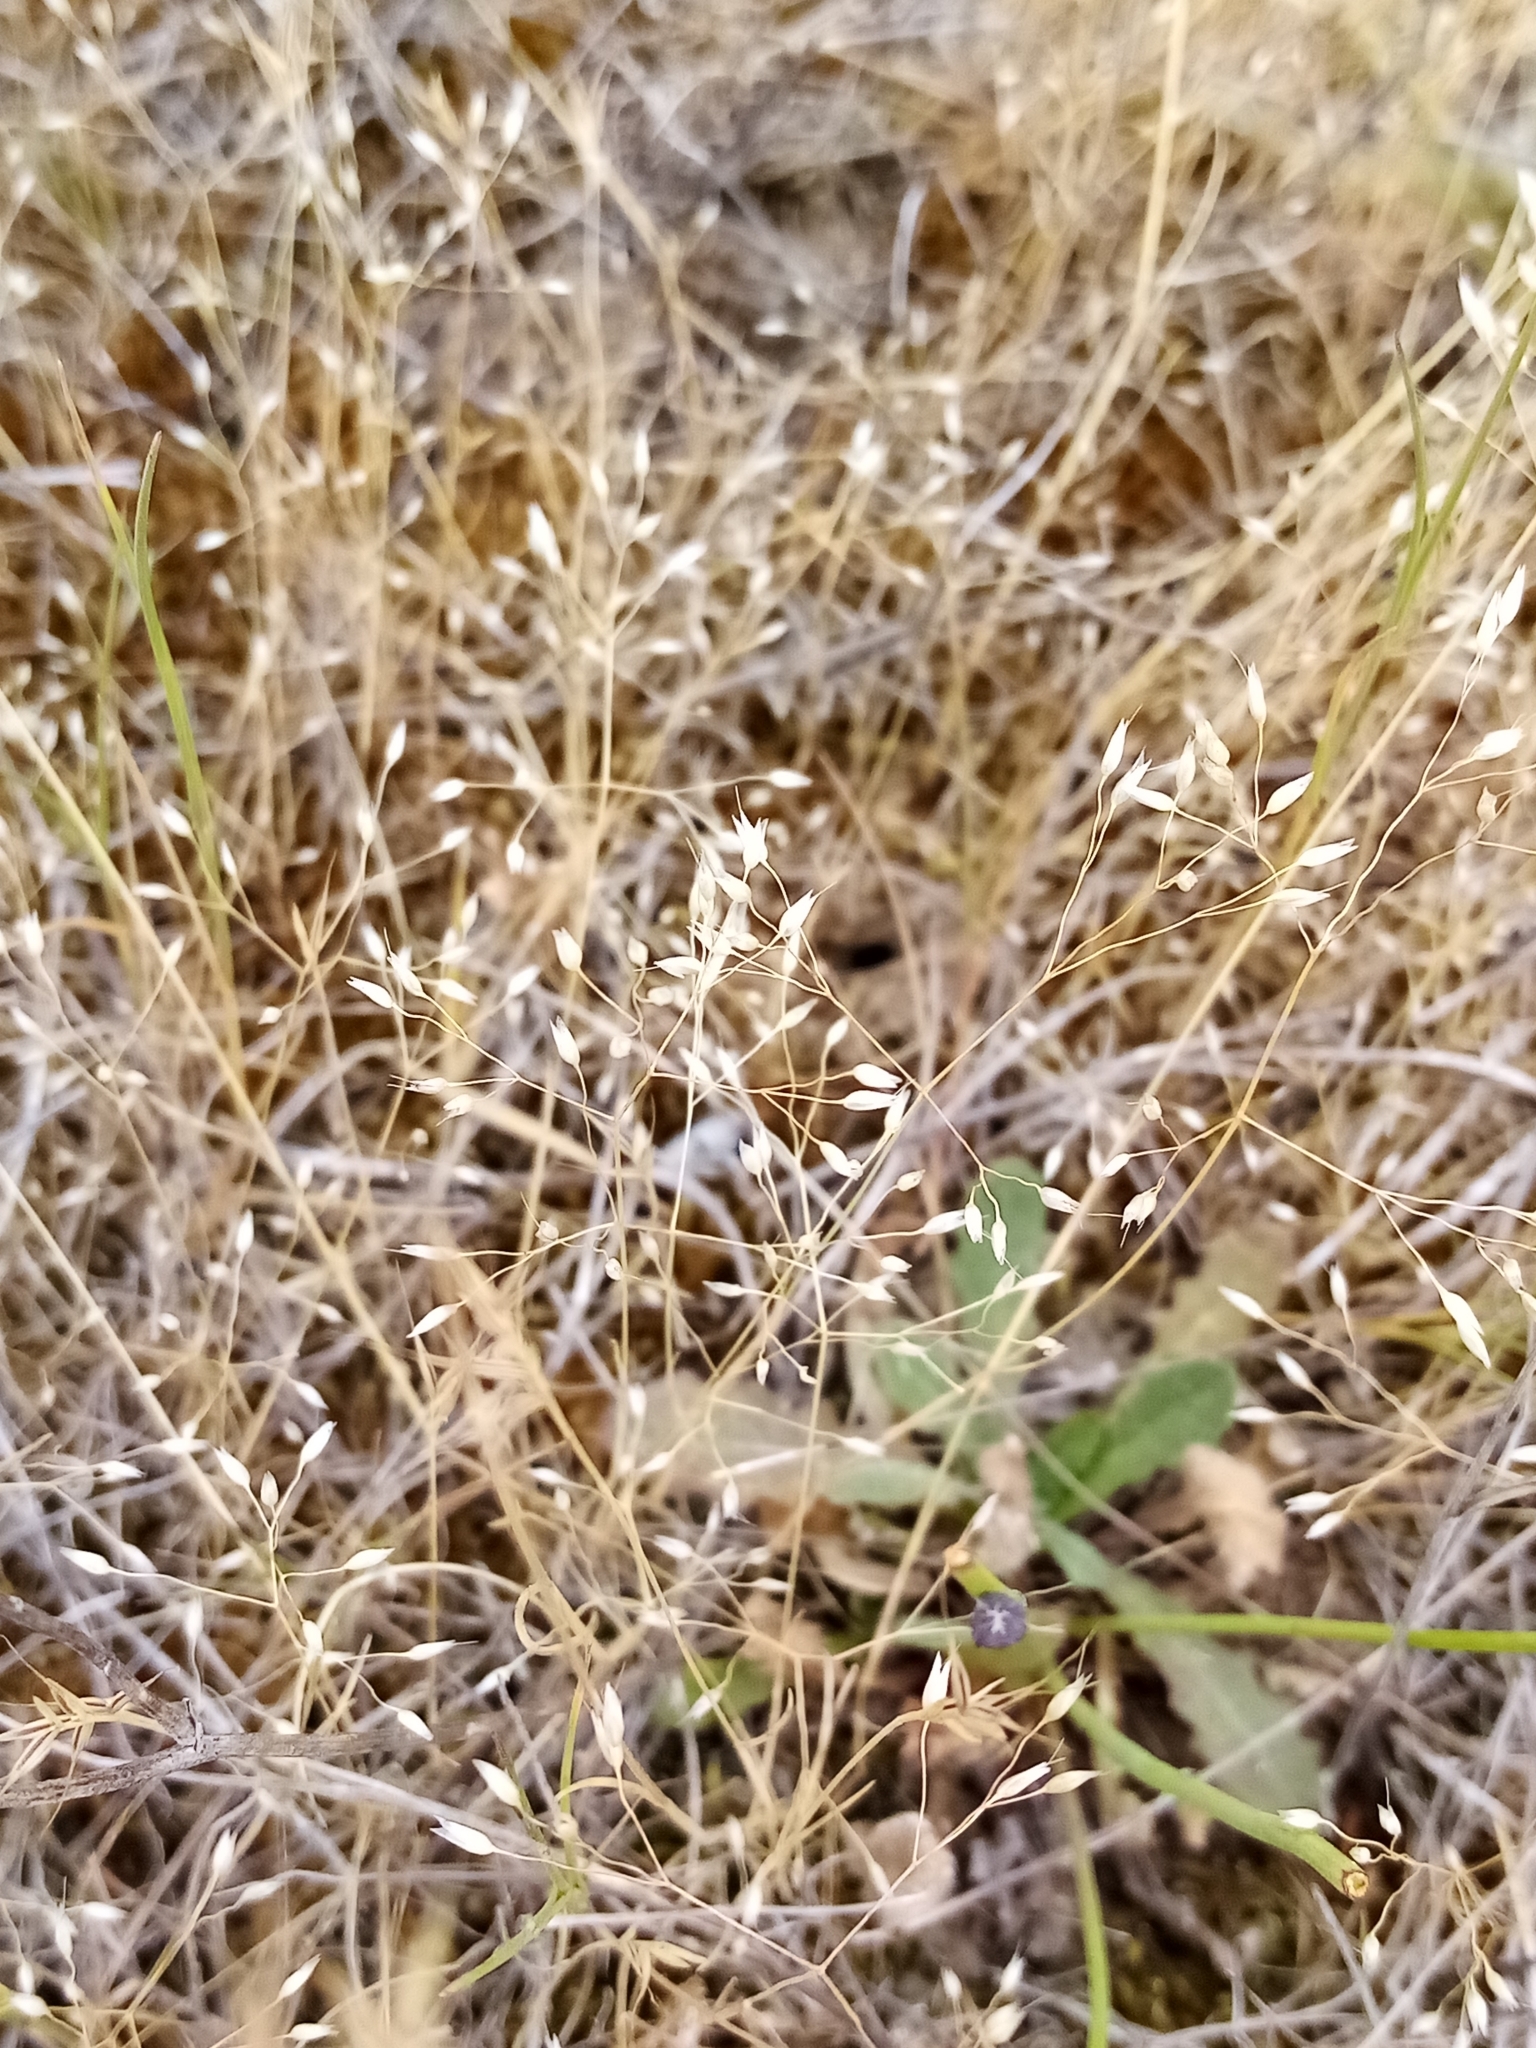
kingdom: Plantae
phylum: Tracheophyta
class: Liliopsida
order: Poales
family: Poaceae
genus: Aira
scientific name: Aira caryophyllea
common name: Silver hairgrass
